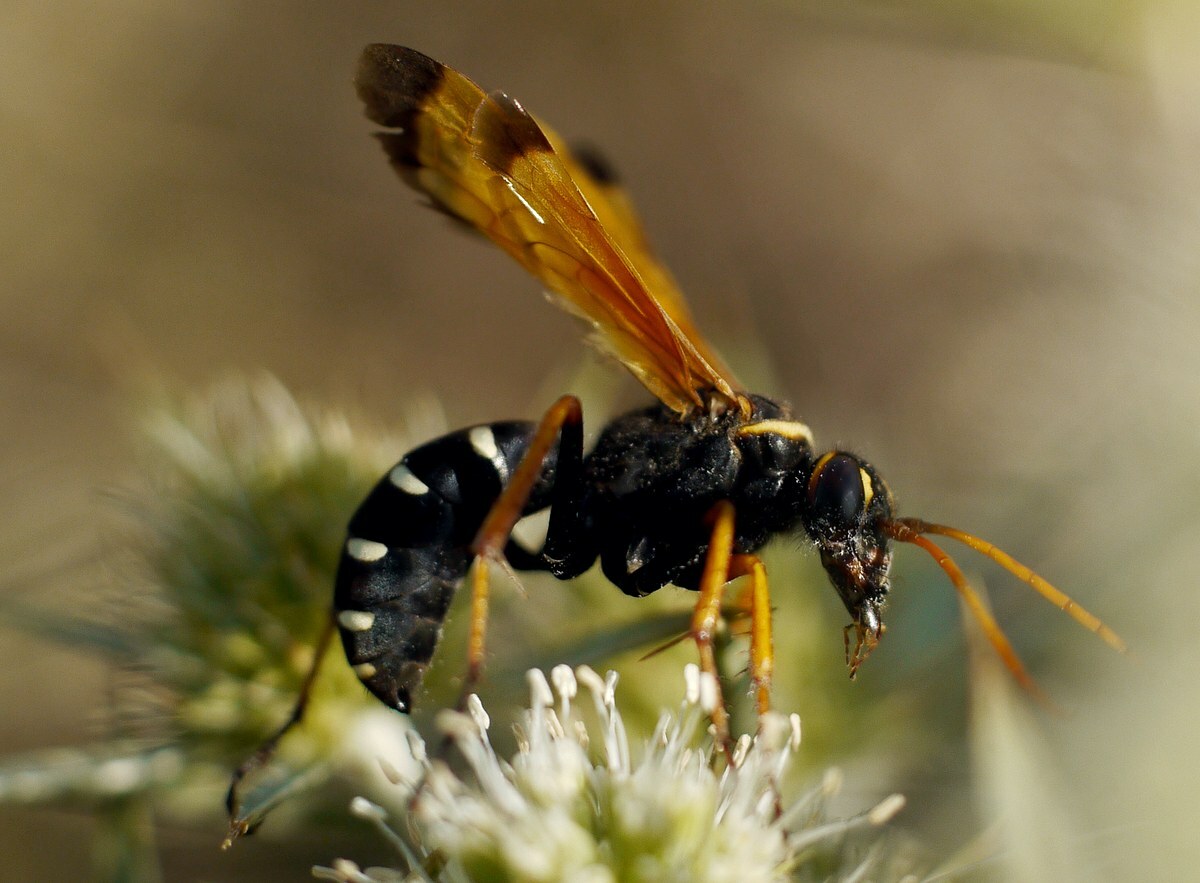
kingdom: Animalia
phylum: Arthropoda
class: Insecta
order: Hymenoptera
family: Pompilidae
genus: Parabatozonus
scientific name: Parabatozonus lacerticida
